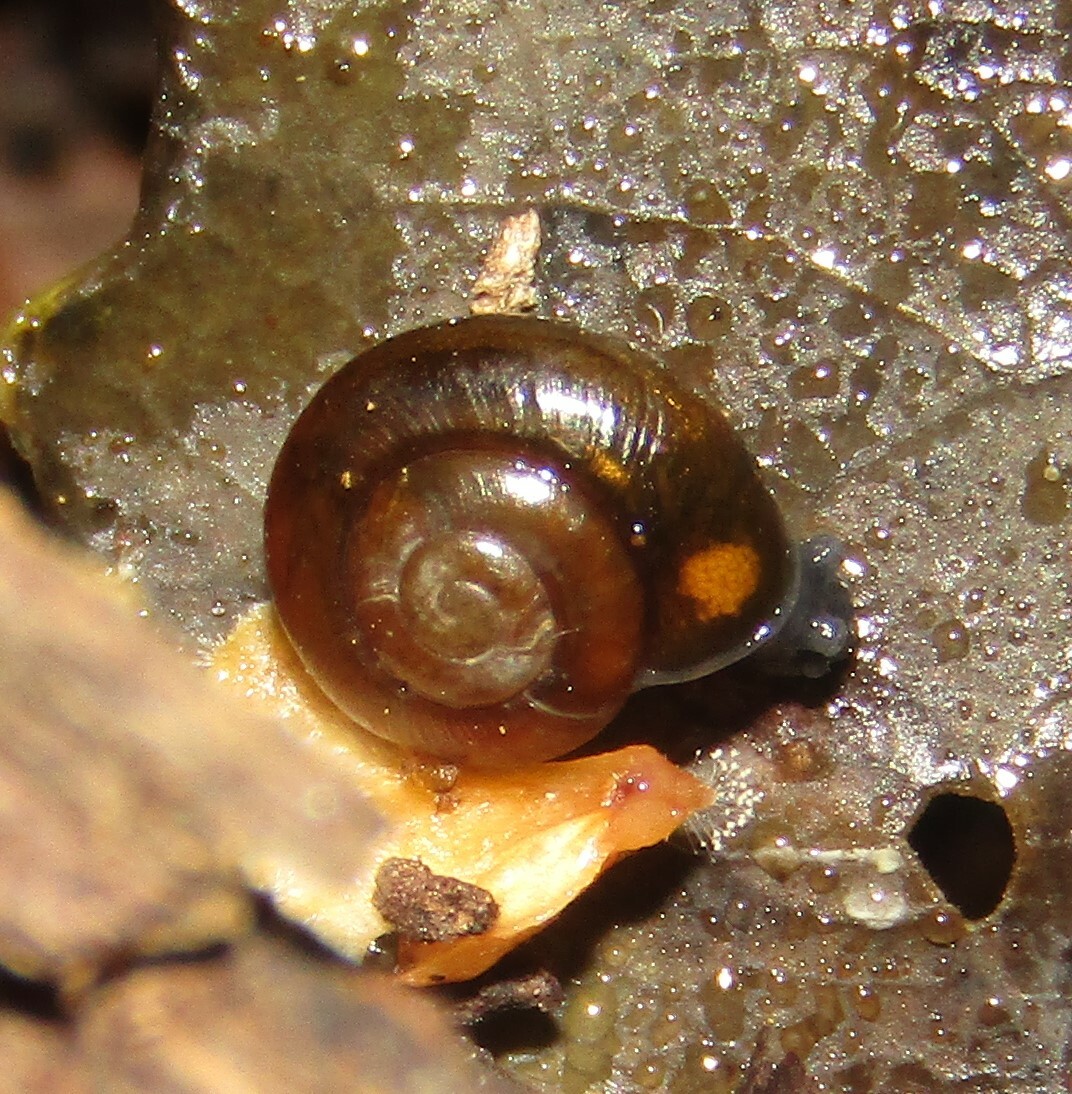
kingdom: Animalia
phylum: Mollusca
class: Gastropoda
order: Stylommatophora
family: Gastrodontidae
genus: Zonitoides
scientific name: Zonitoides nitidus
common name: Shiny glass snail
